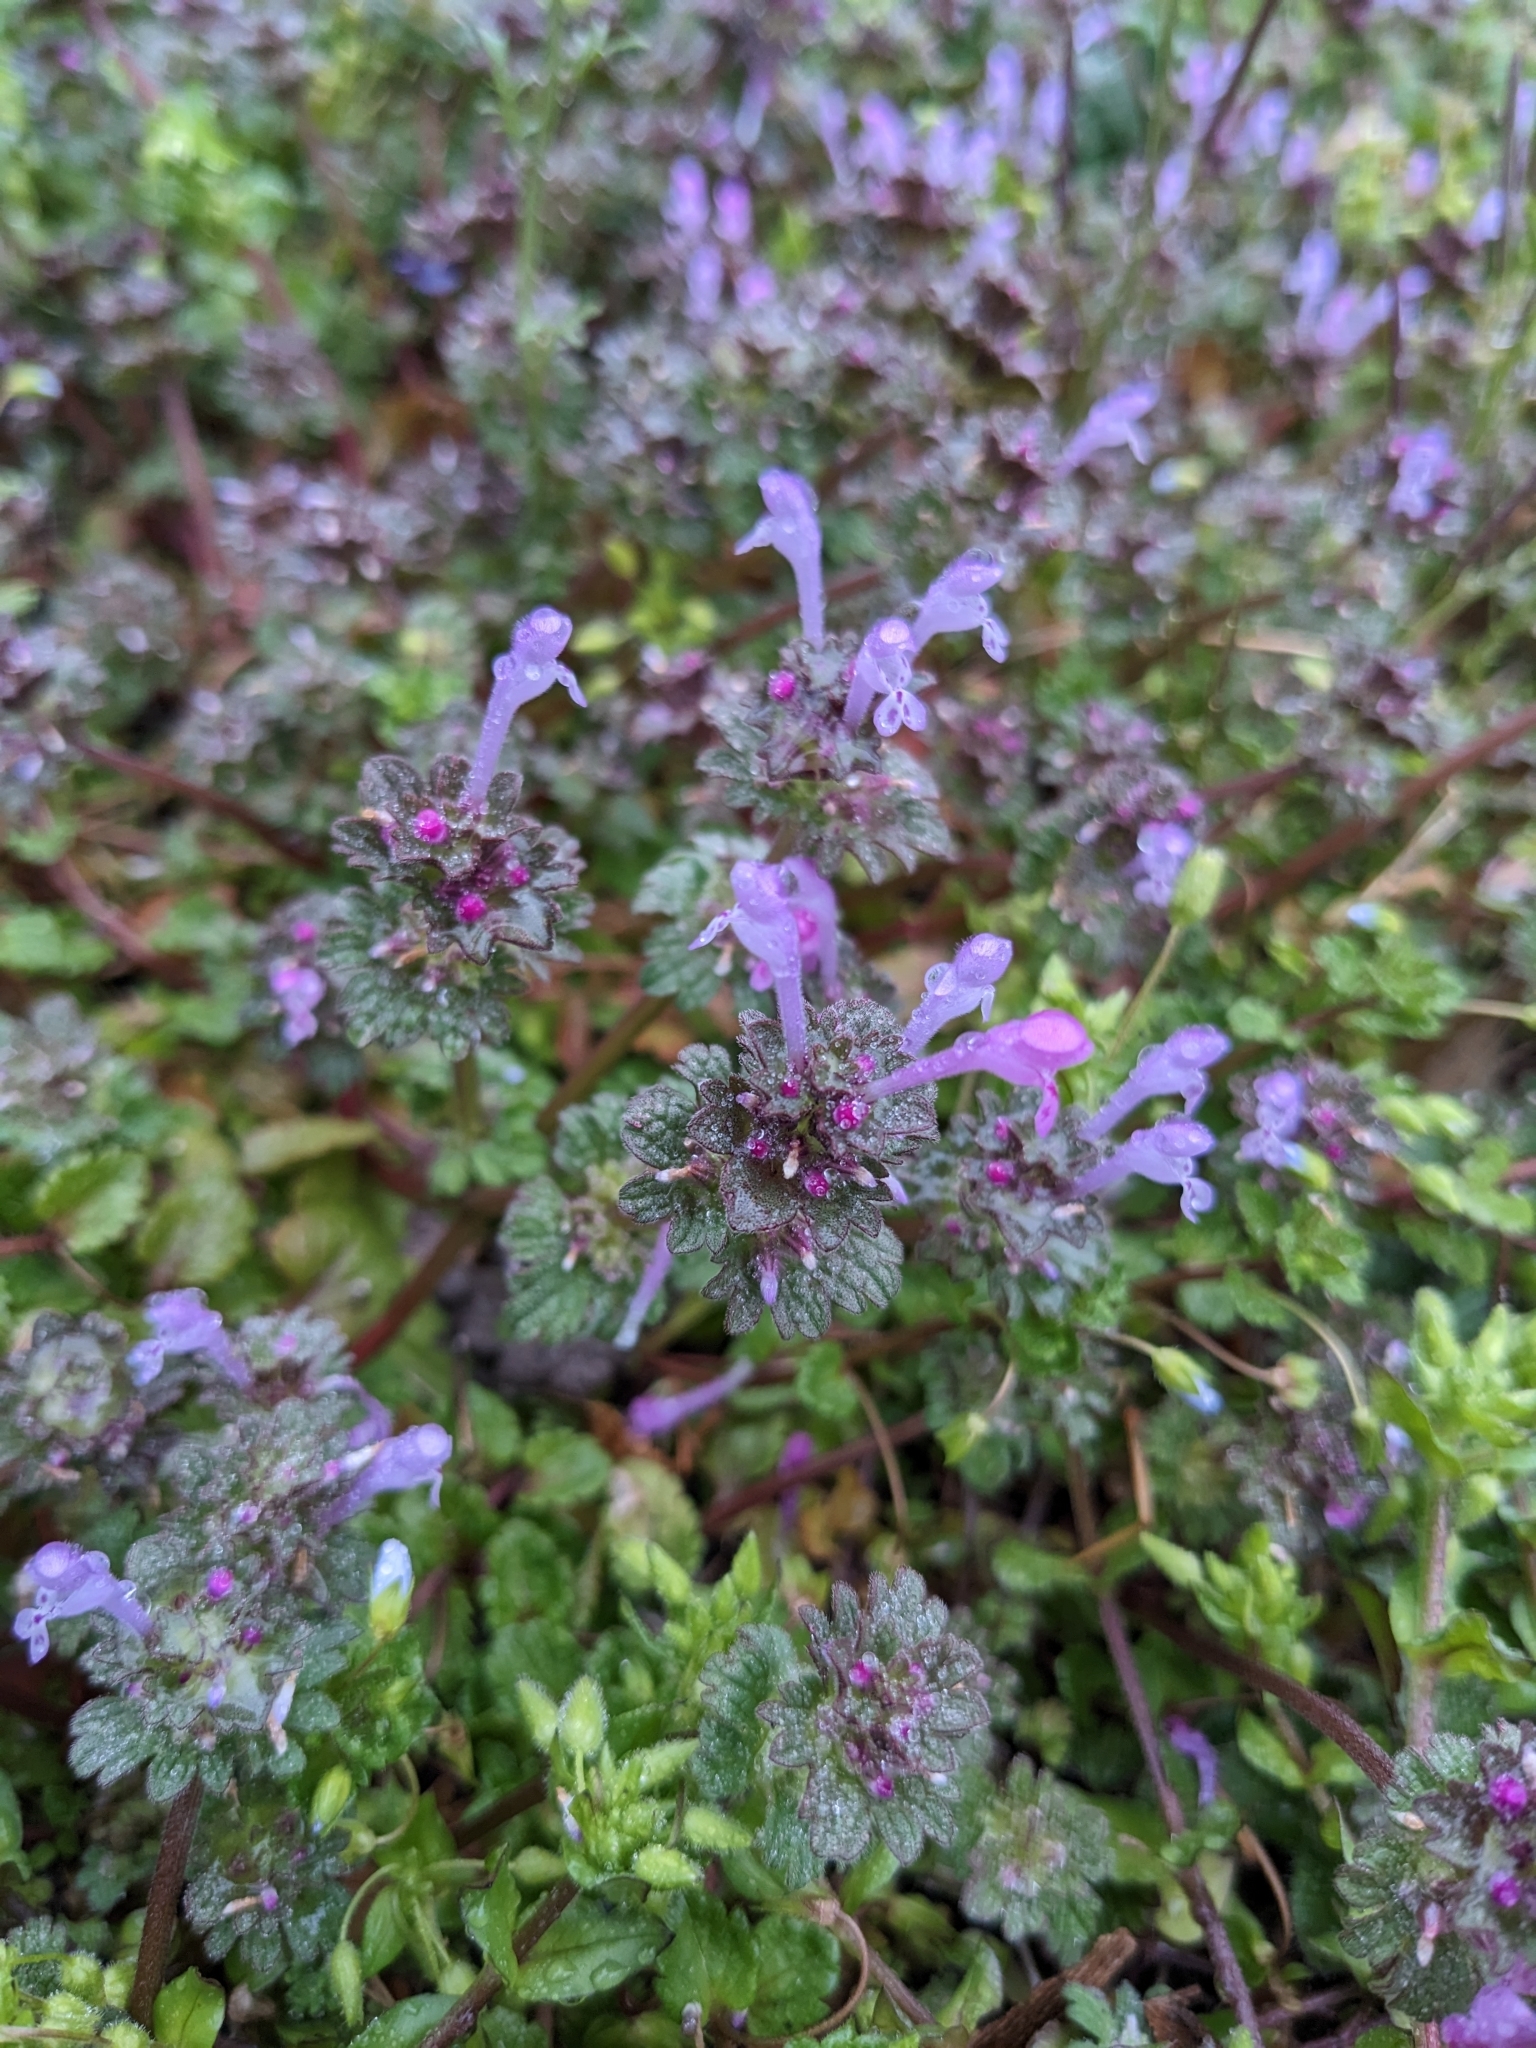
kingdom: Plantae
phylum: Tracheophyta
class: Magnoliopsida
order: Lamiales
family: Lamiaceae
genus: Lamium
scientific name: Lamium amplexicaule
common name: Henbit dead-nettle
